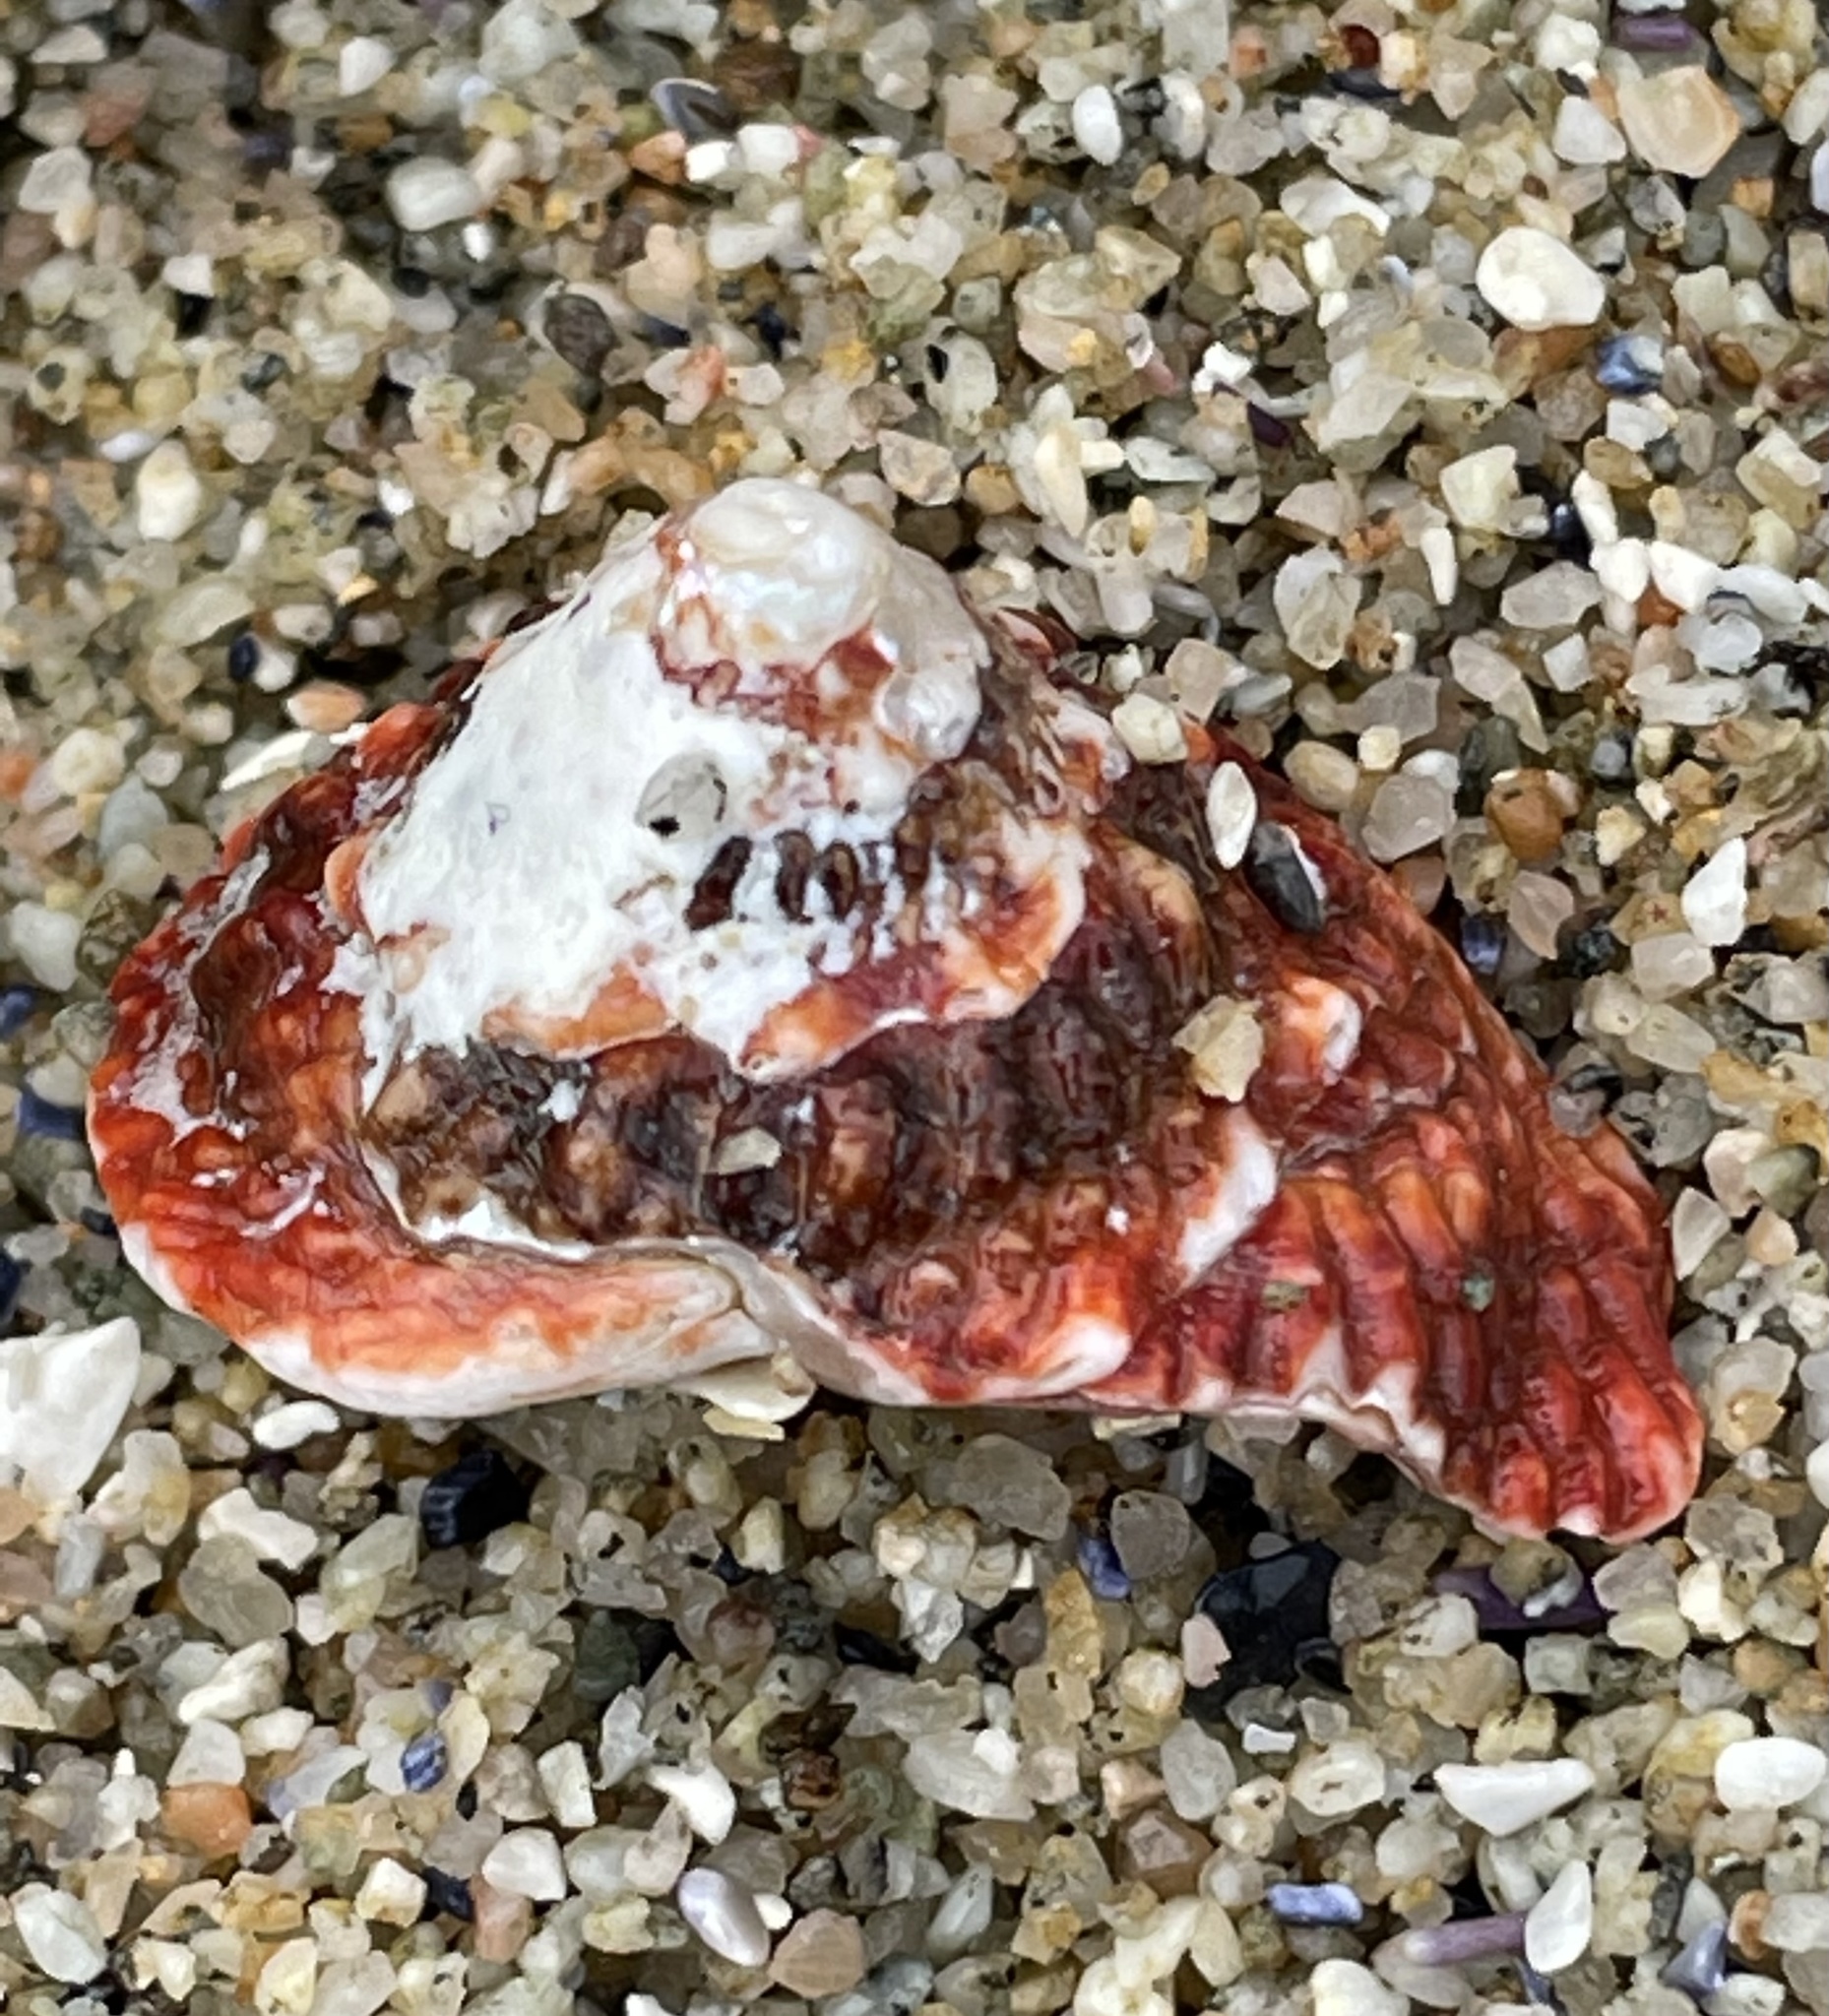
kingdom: Animalia
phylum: Mollusca
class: Gastropoda
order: Trochida
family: Turbinidae
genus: Pomaulax
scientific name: Pomaulax gibberosus
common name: Red turban
